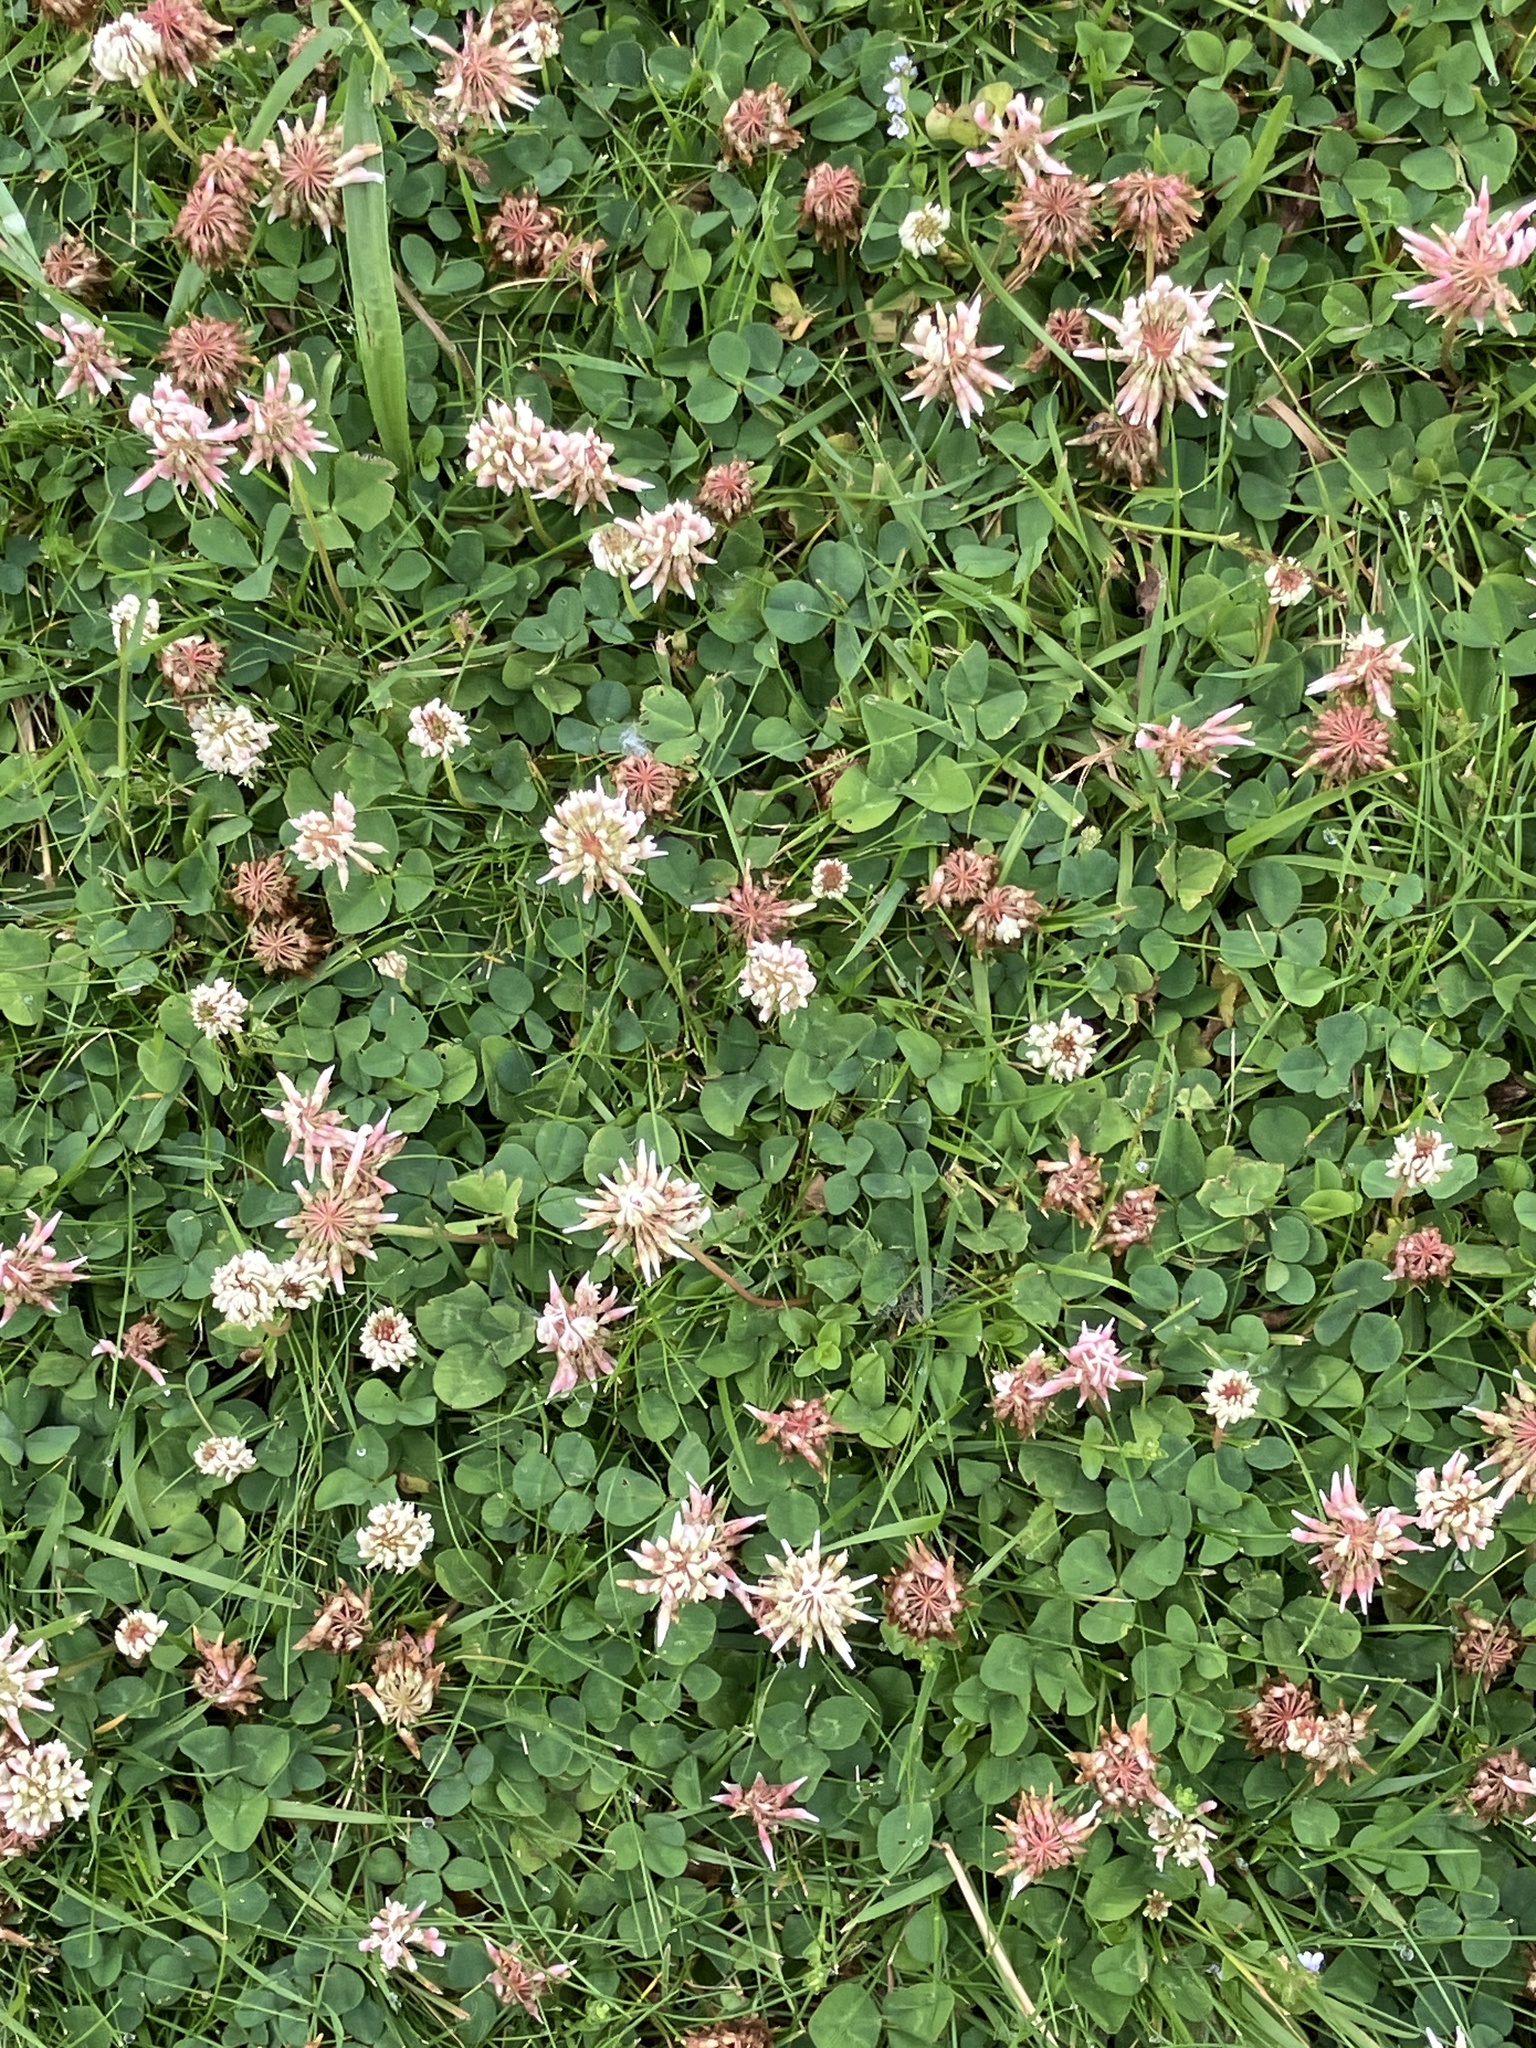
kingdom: Plantae
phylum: Tracheophyta
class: Magnoliopsida
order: Fabales
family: Fabaceae
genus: Trifolium
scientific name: Trifolium repens
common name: White clover
